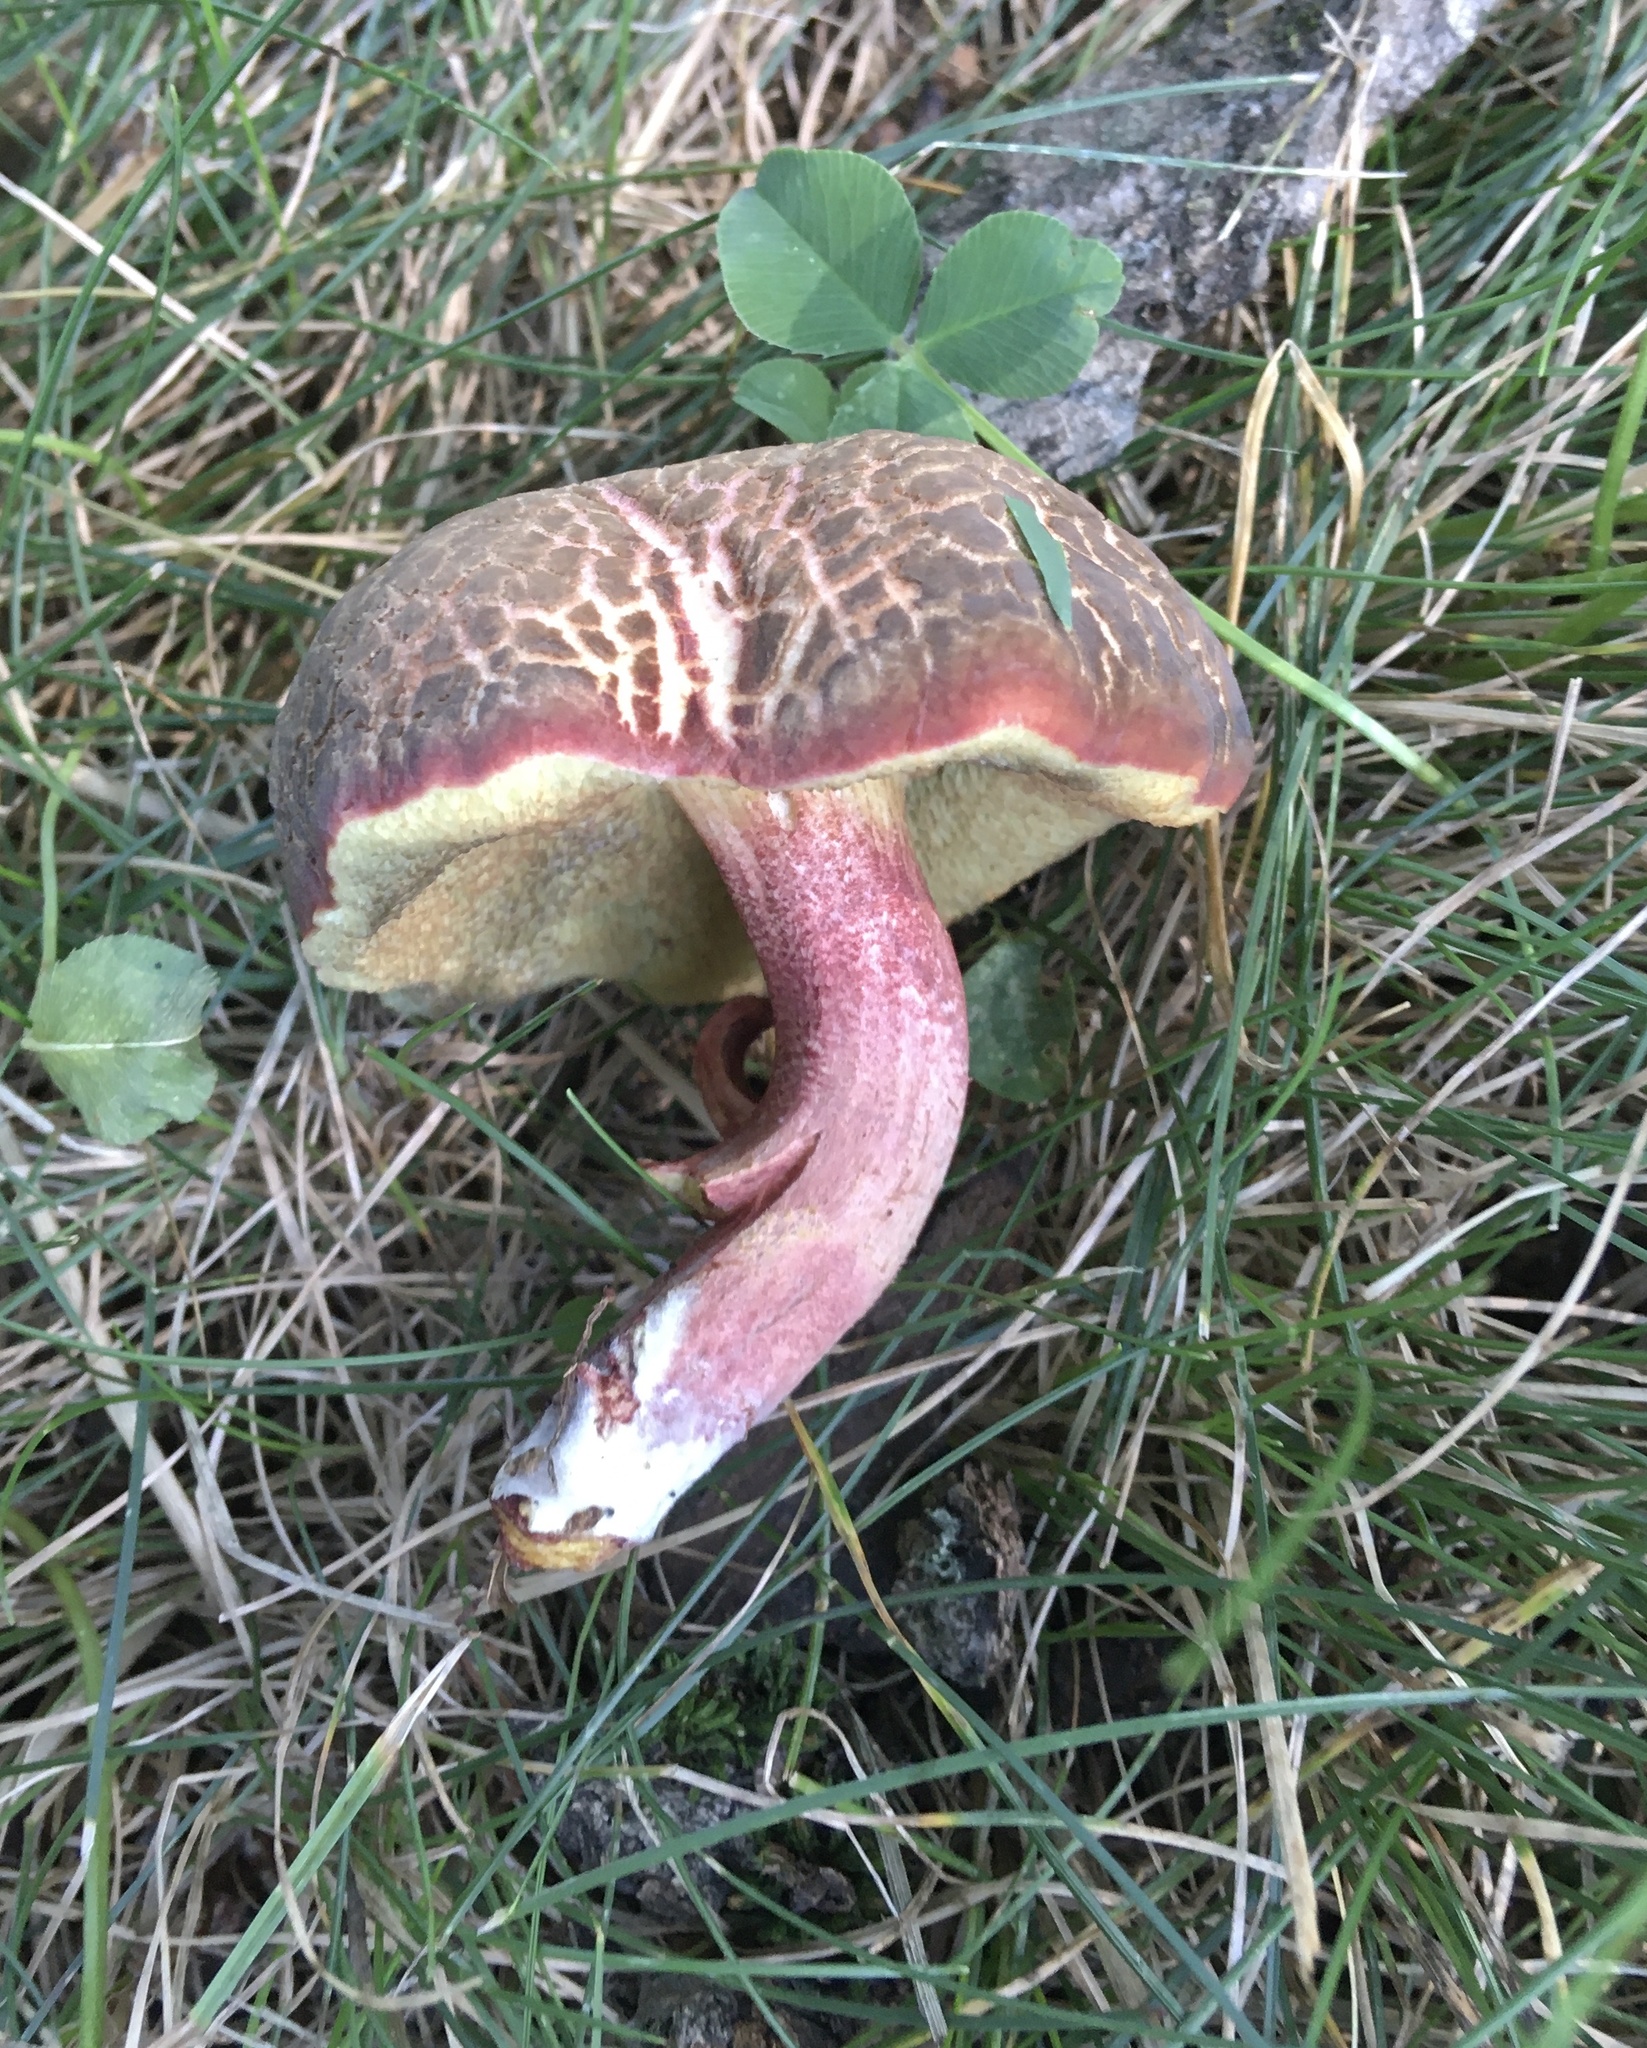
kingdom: Fungi
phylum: Basidiomycota
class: Agaricomycetes
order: Boletales
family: Boletaceae
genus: Xerocomellus
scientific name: Xerocomellus chrysenteron
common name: Red-cracking bolete
